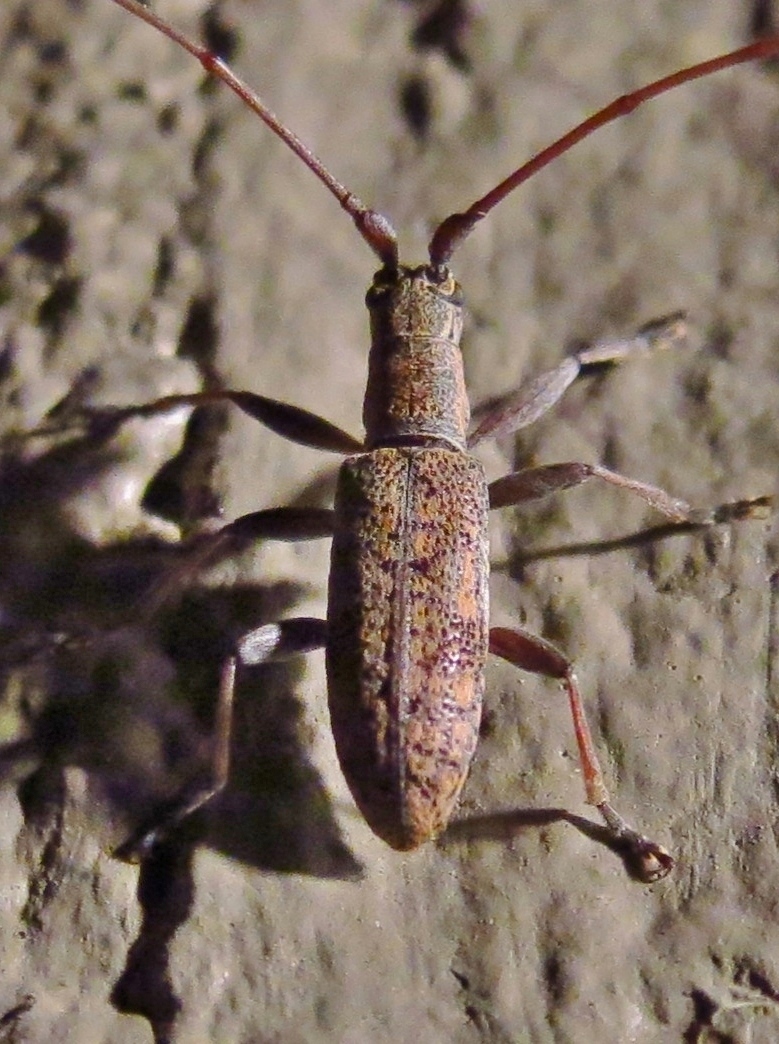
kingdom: Animalia
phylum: Arthropoda
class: Insecta
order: Coleoptera
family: Cerambycidae
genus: Dorcaschema
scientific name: Dorcaschema alternatum
